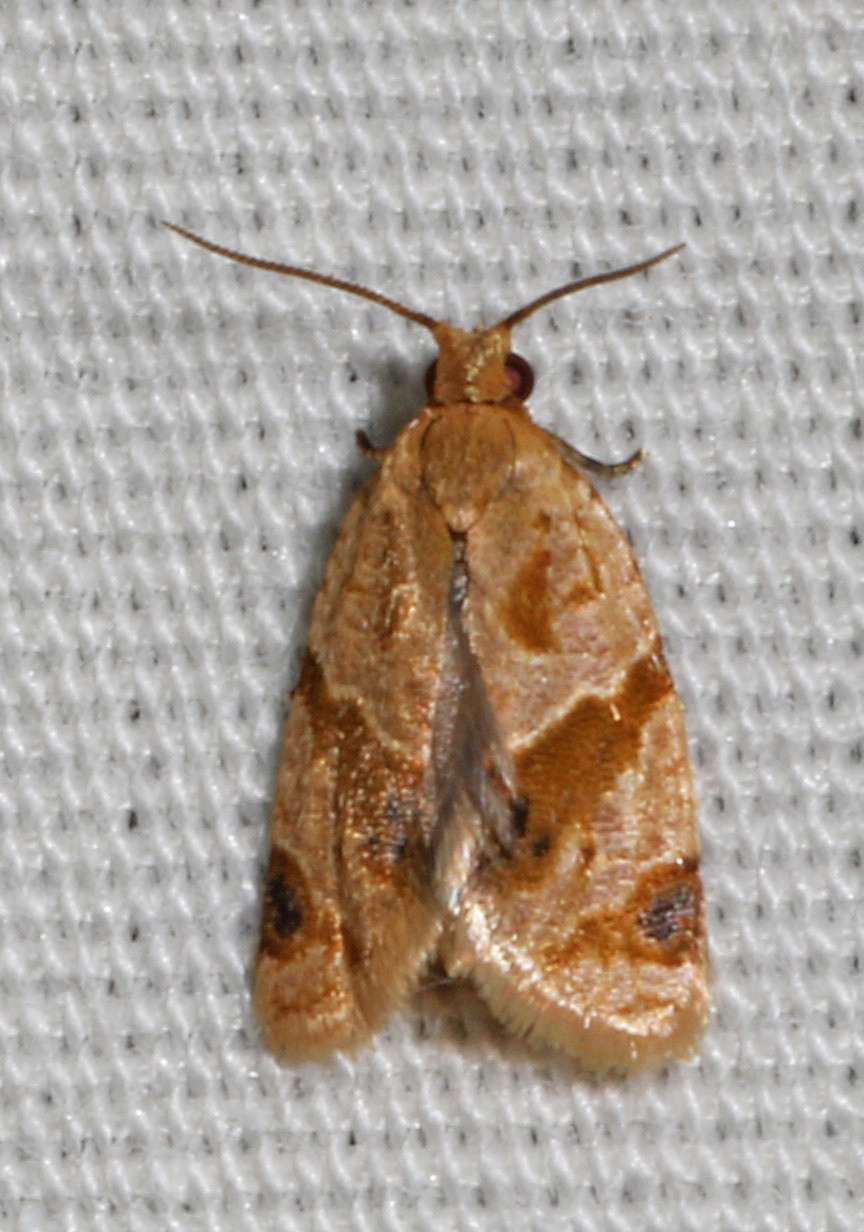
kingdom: Animalia
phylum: Arthropoda
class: Insecta
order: Lepidoptera
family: Tortricidae
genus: Clepsis
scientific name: Clepsis
